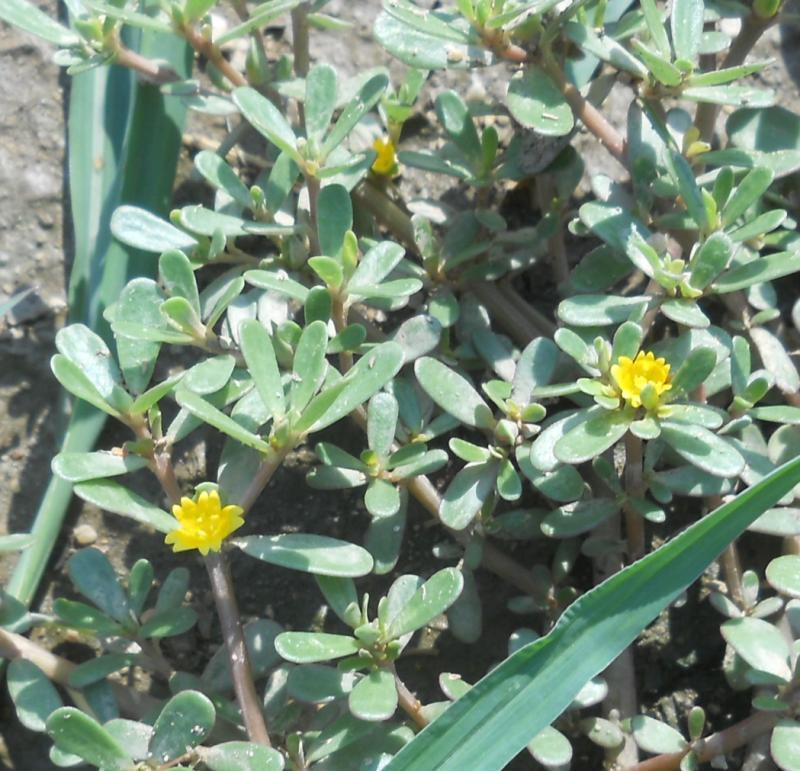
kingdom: Plantae
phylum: Tracheophyta
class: Magnoliopsida
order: Caryophyllales
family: Portulacaceae
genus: Portulaca
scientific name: Portulaca oleracea
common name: Common purslane
